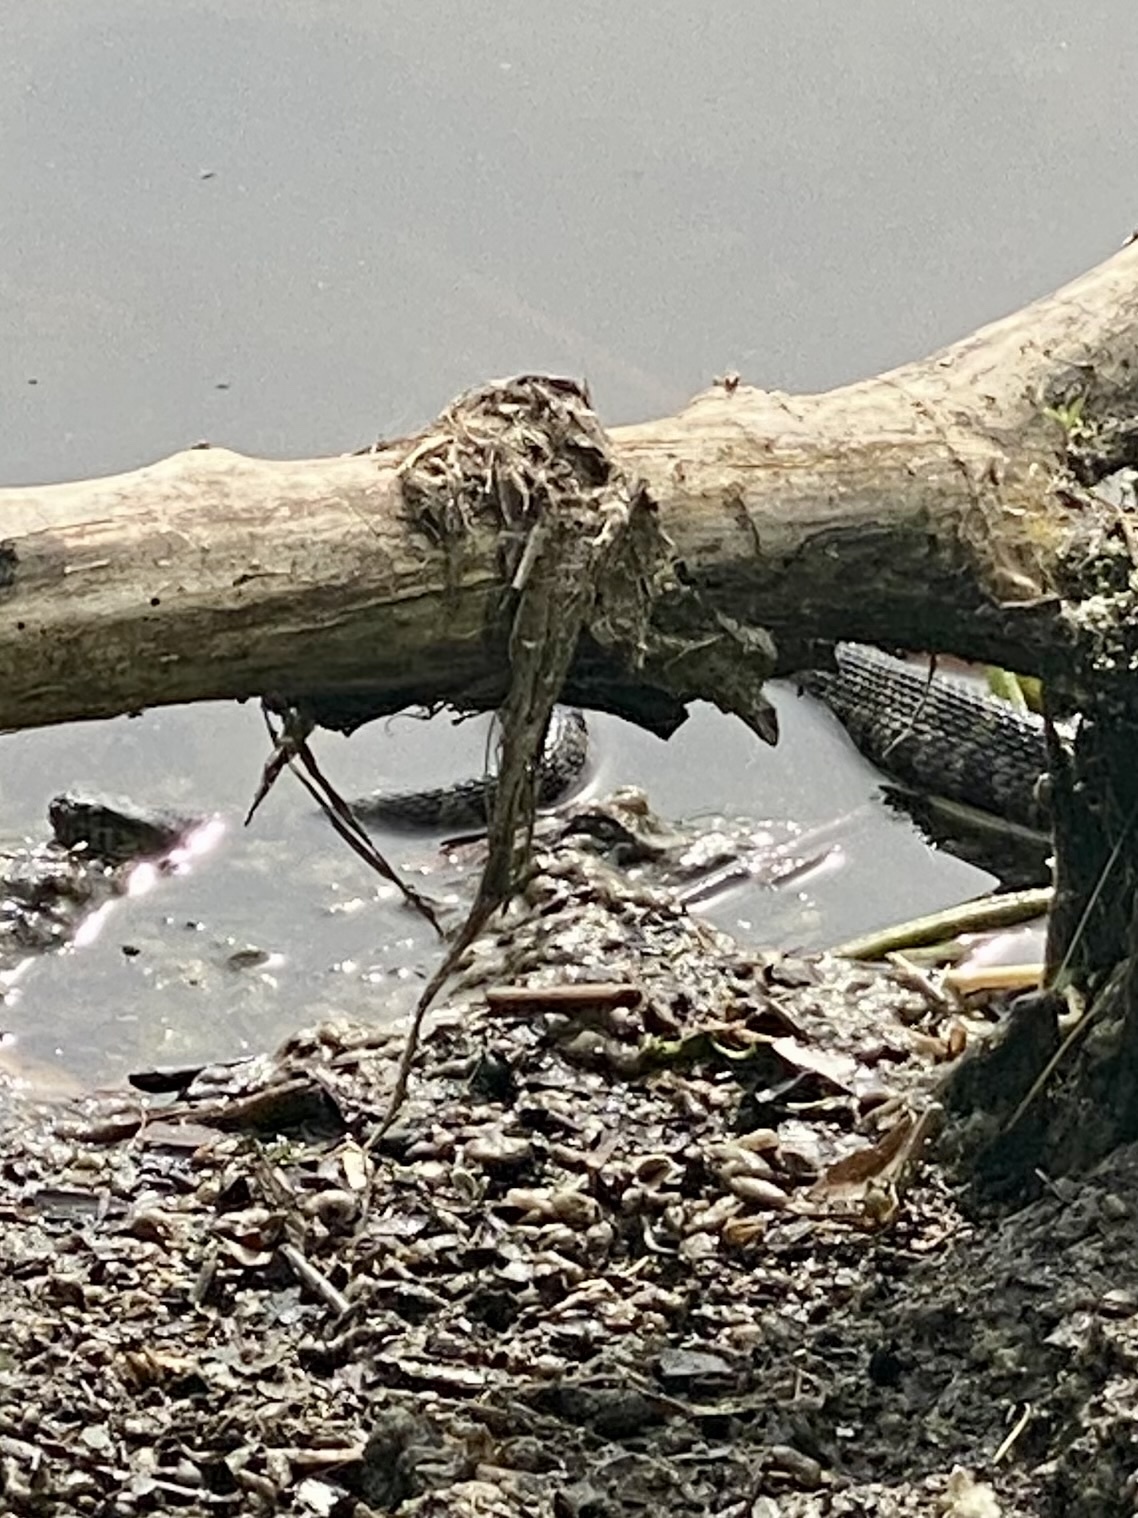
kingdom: Animalia
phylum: Chordata
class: Squamata
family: Colubridae
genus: Nerodia
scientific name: Nerodia sipedon
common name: Northern water snake
